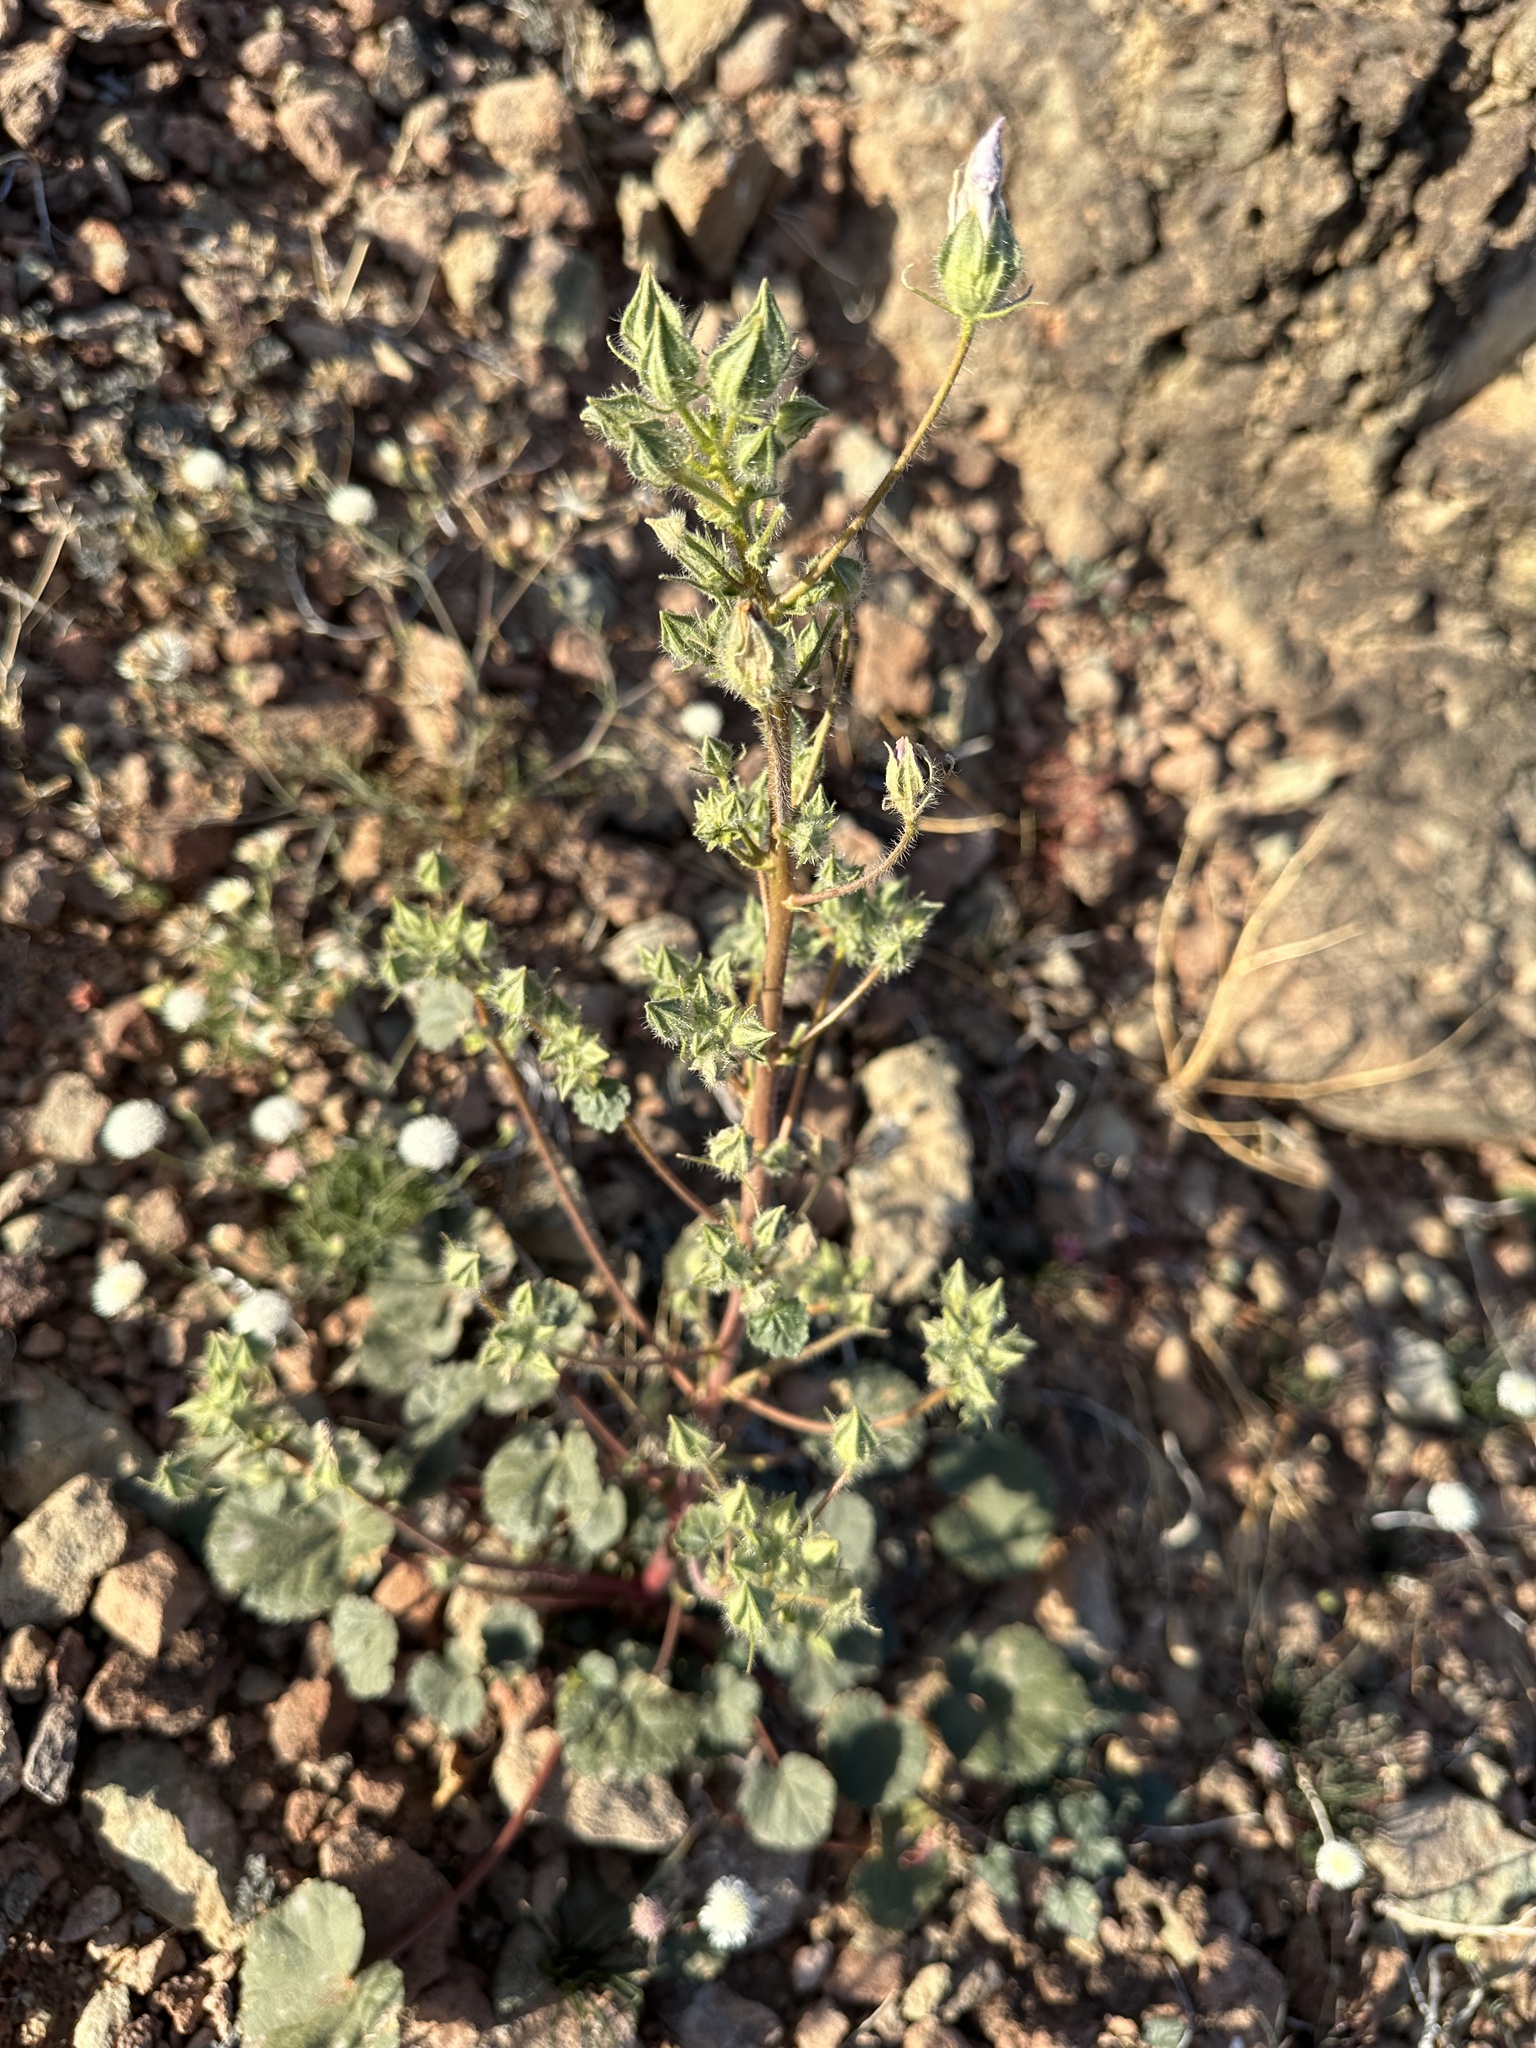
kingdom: Plantae
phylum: Tracheophyta
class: Magnoliopsida
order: Malvales
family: Malvaceae
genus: Eremalche
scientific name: Eremalche rotundifolia
